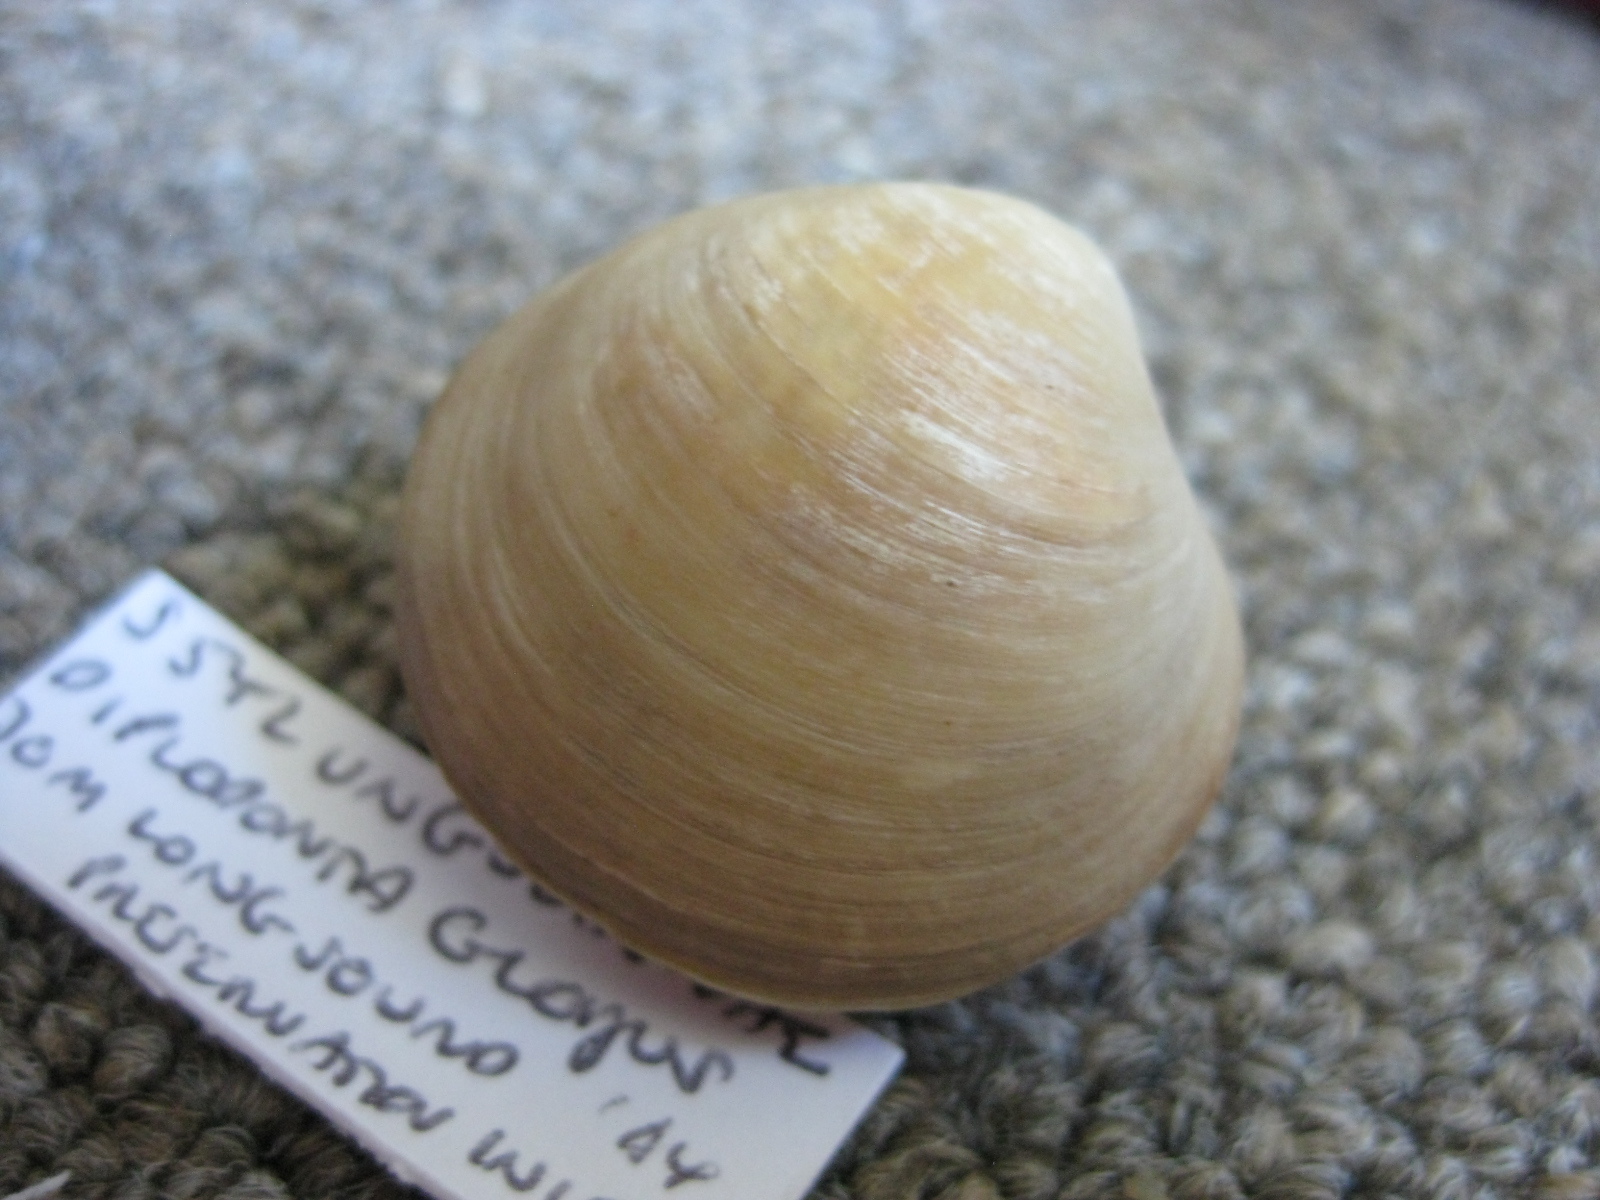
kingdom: Animalia
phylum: Mollusca
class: Bivalvia
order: Venerida
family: Ungulinidae
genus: Zemysina
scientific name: Zemysina globus
